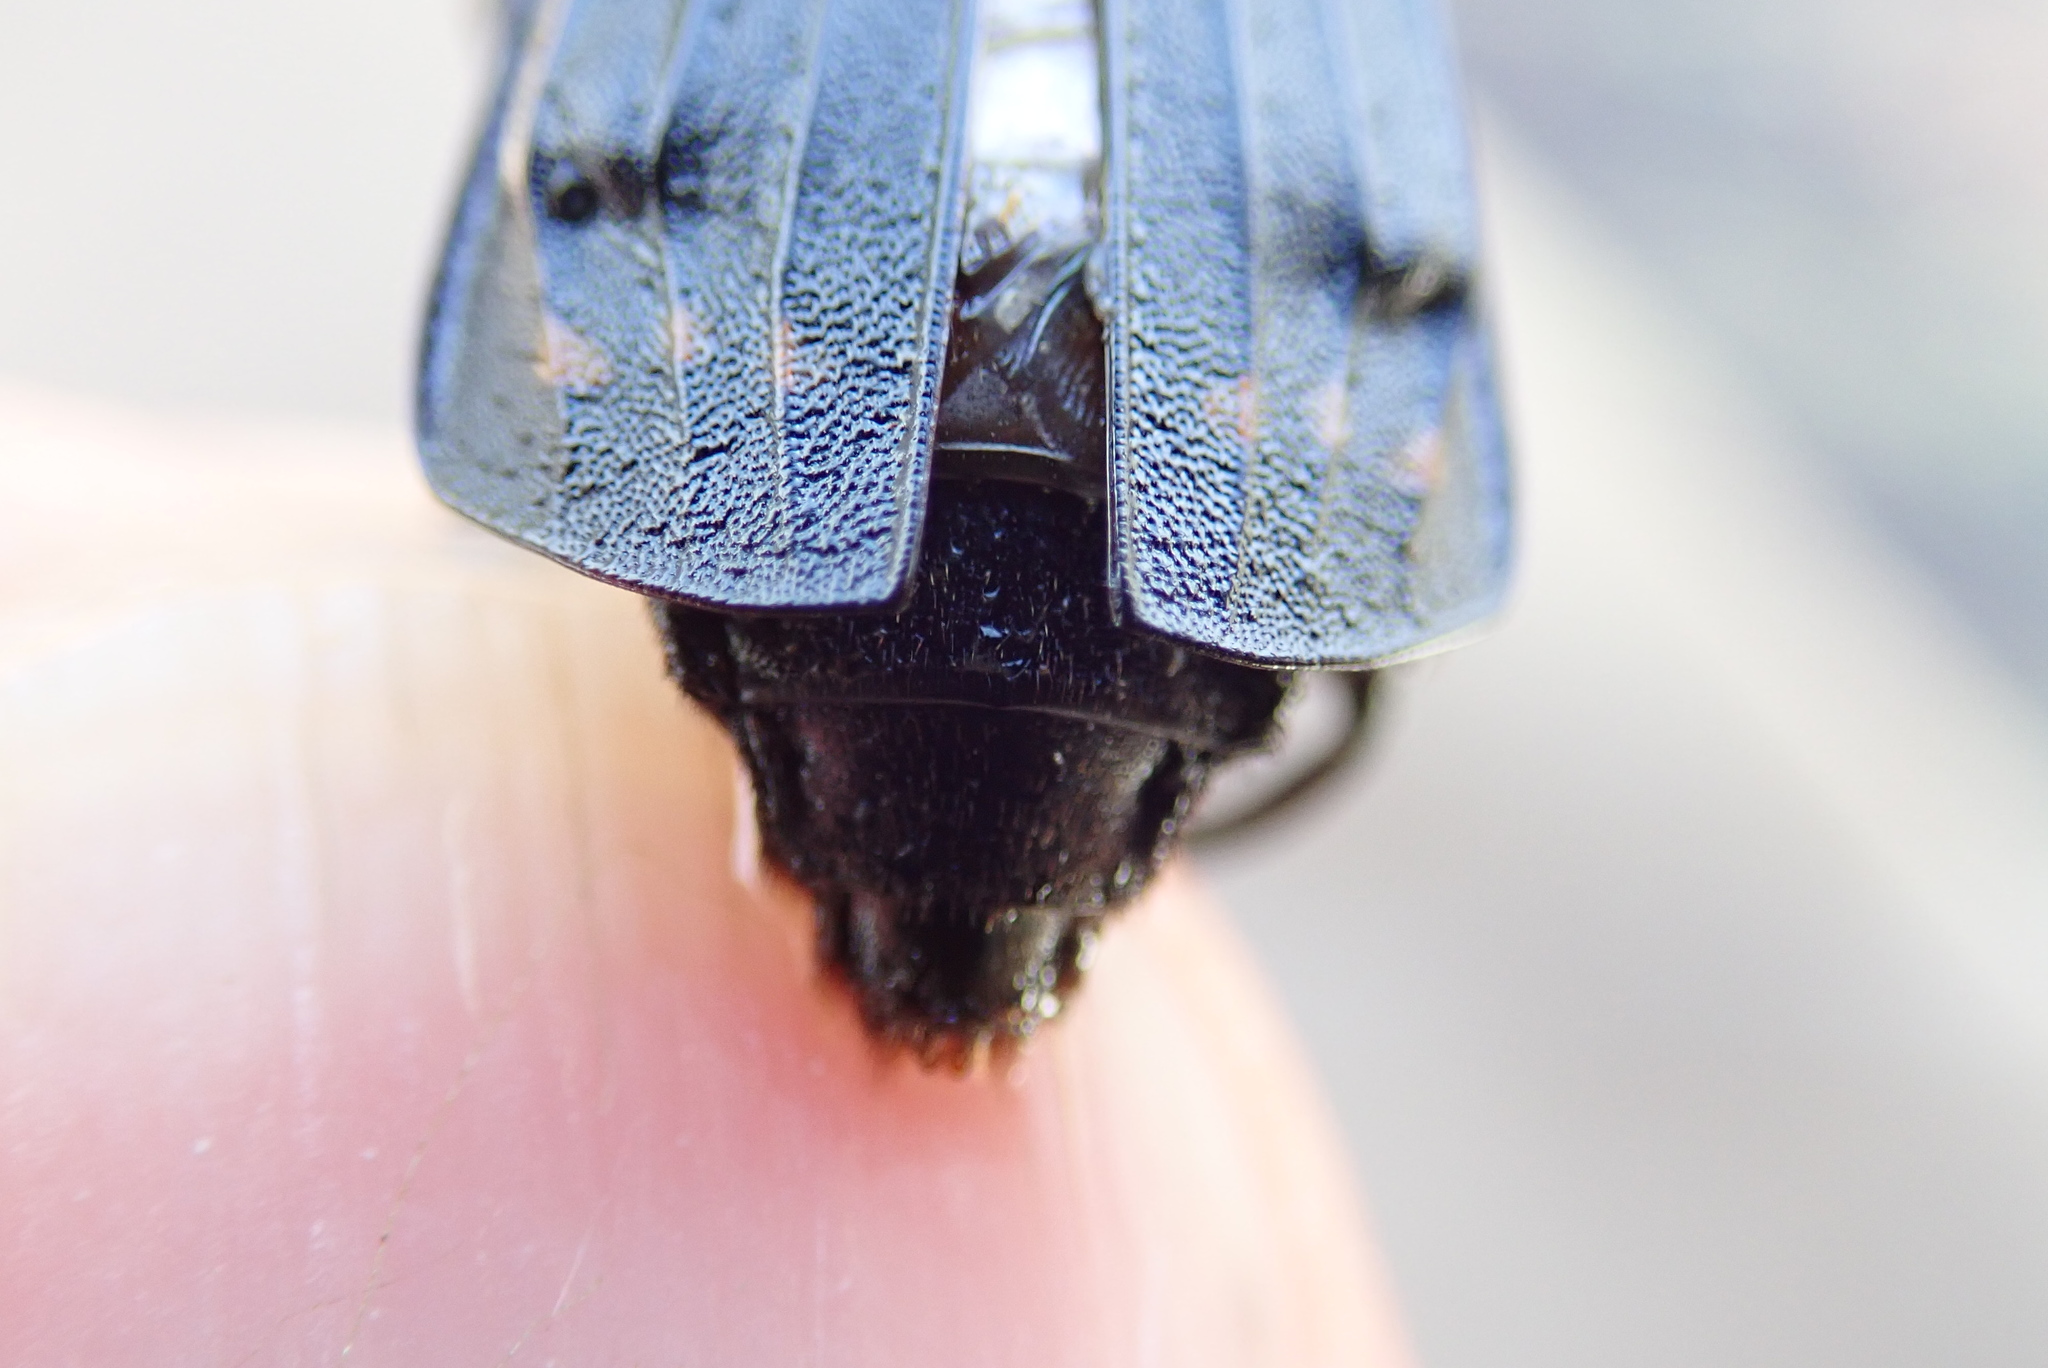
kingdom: Animalia
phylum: Arthropoda
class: Insecta
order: Coleoptera
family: Staphylinidae
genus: Necrodes
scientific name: Necrodes surinamensis
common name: Red-lined carrion beetle
